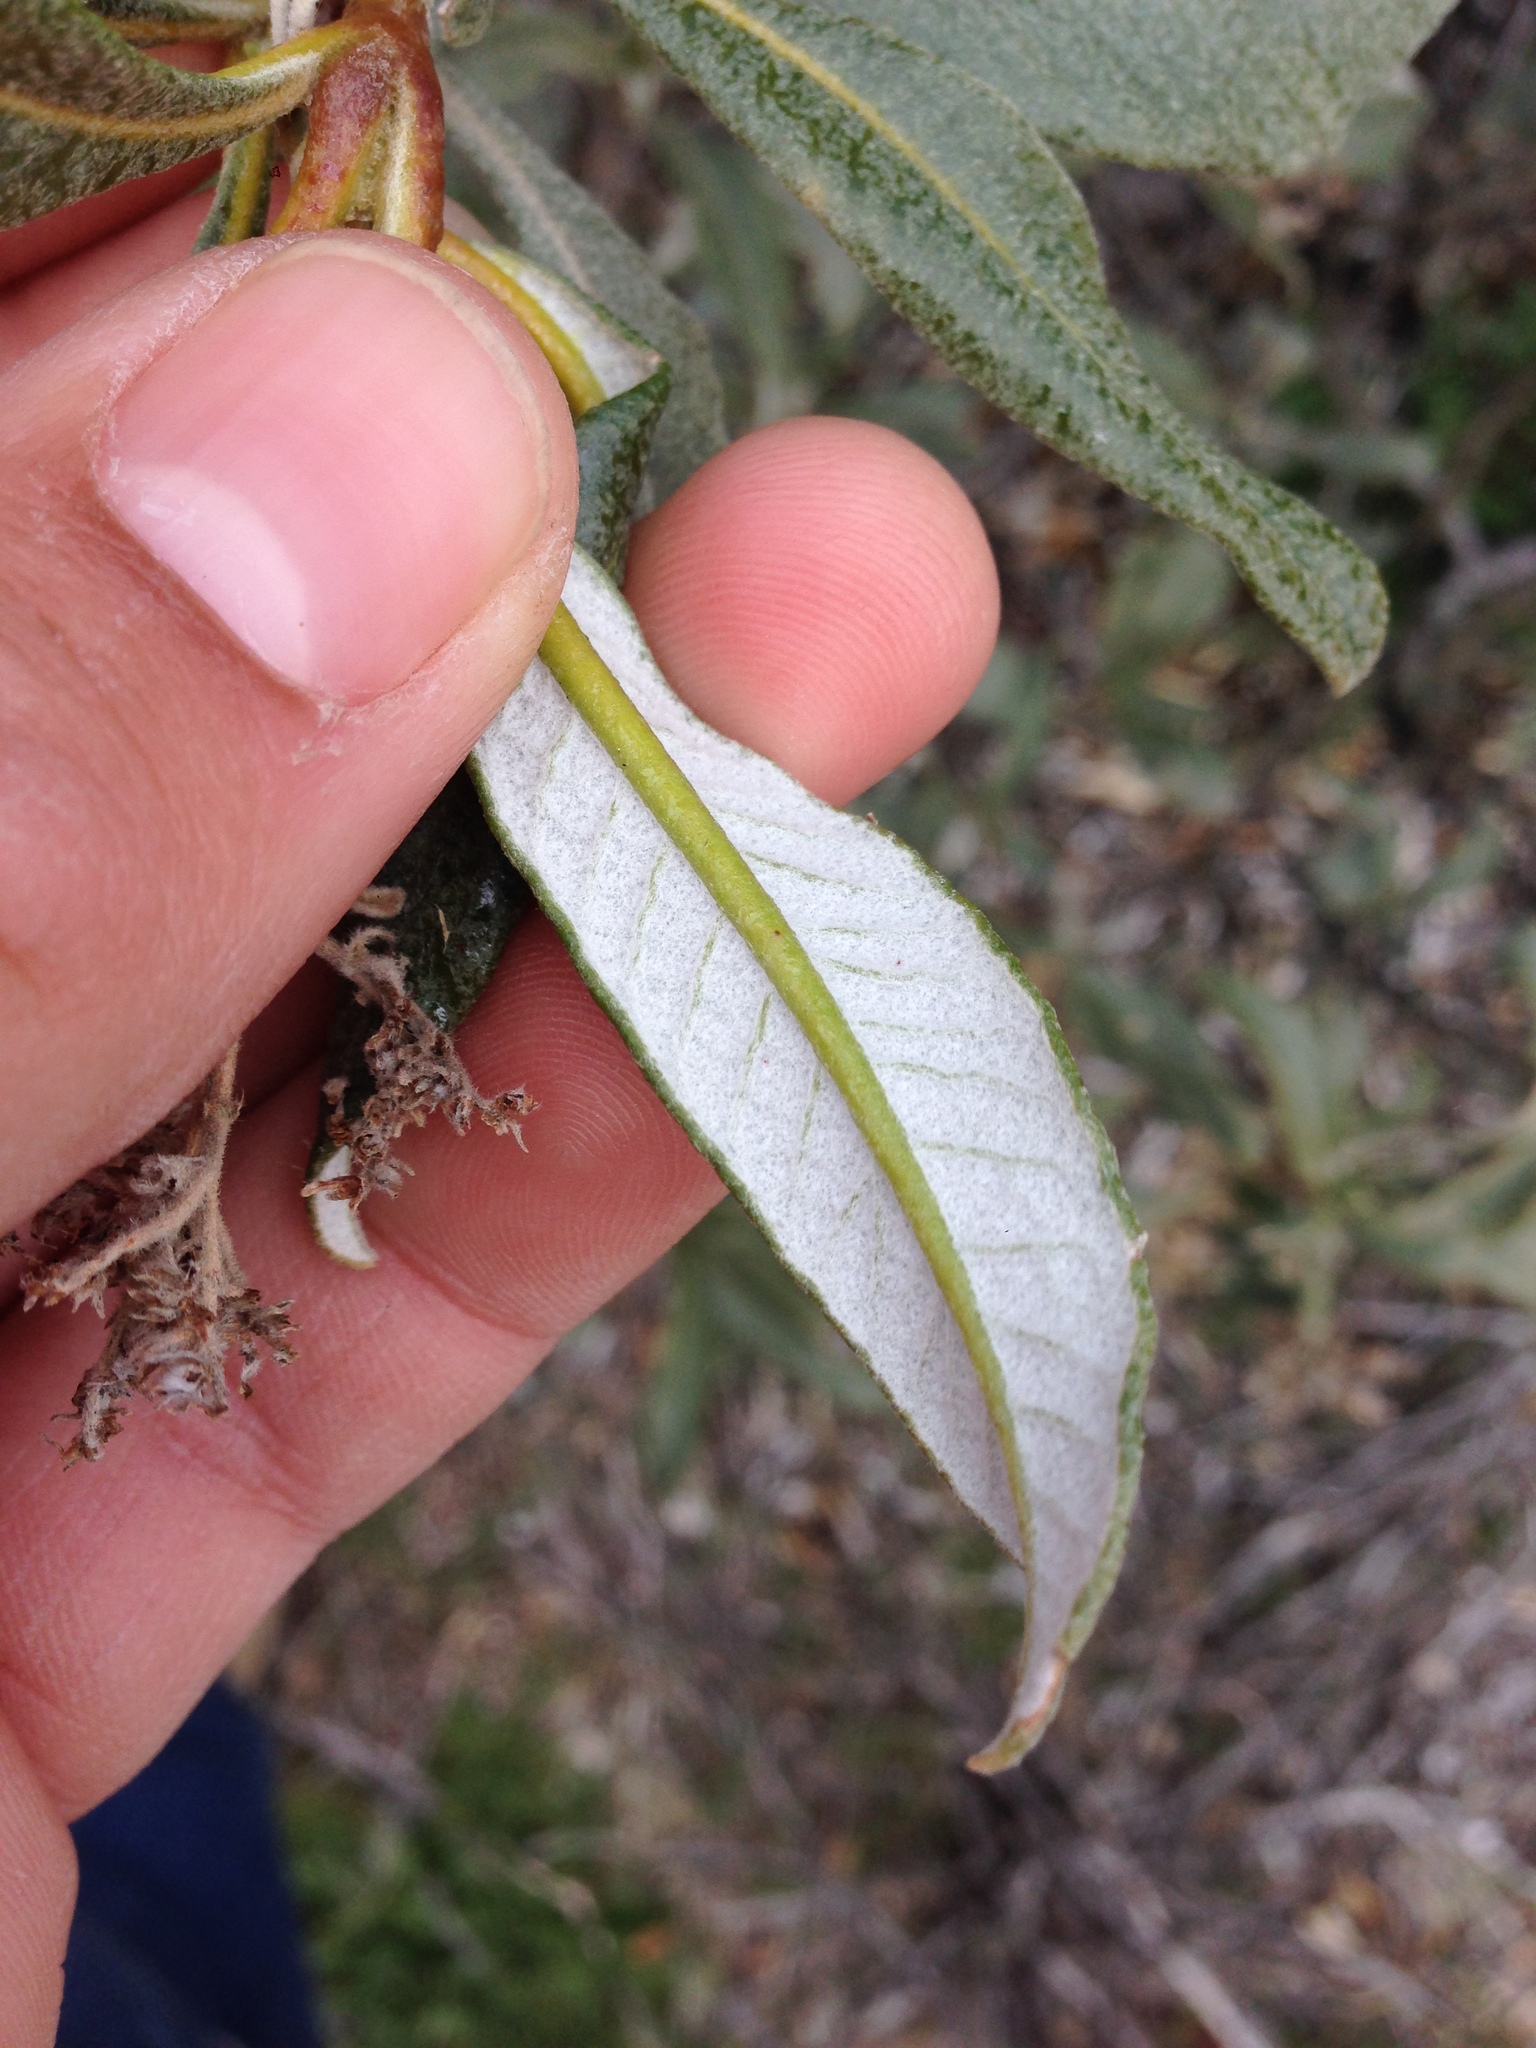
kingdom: Plantae
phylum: Tracheophyta
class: Magnoliopsida
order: Boraginales
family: Namaceae
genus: Eriodictyon
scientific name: Eriodictyon trichocalyx
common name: Hairy yerba-santa
